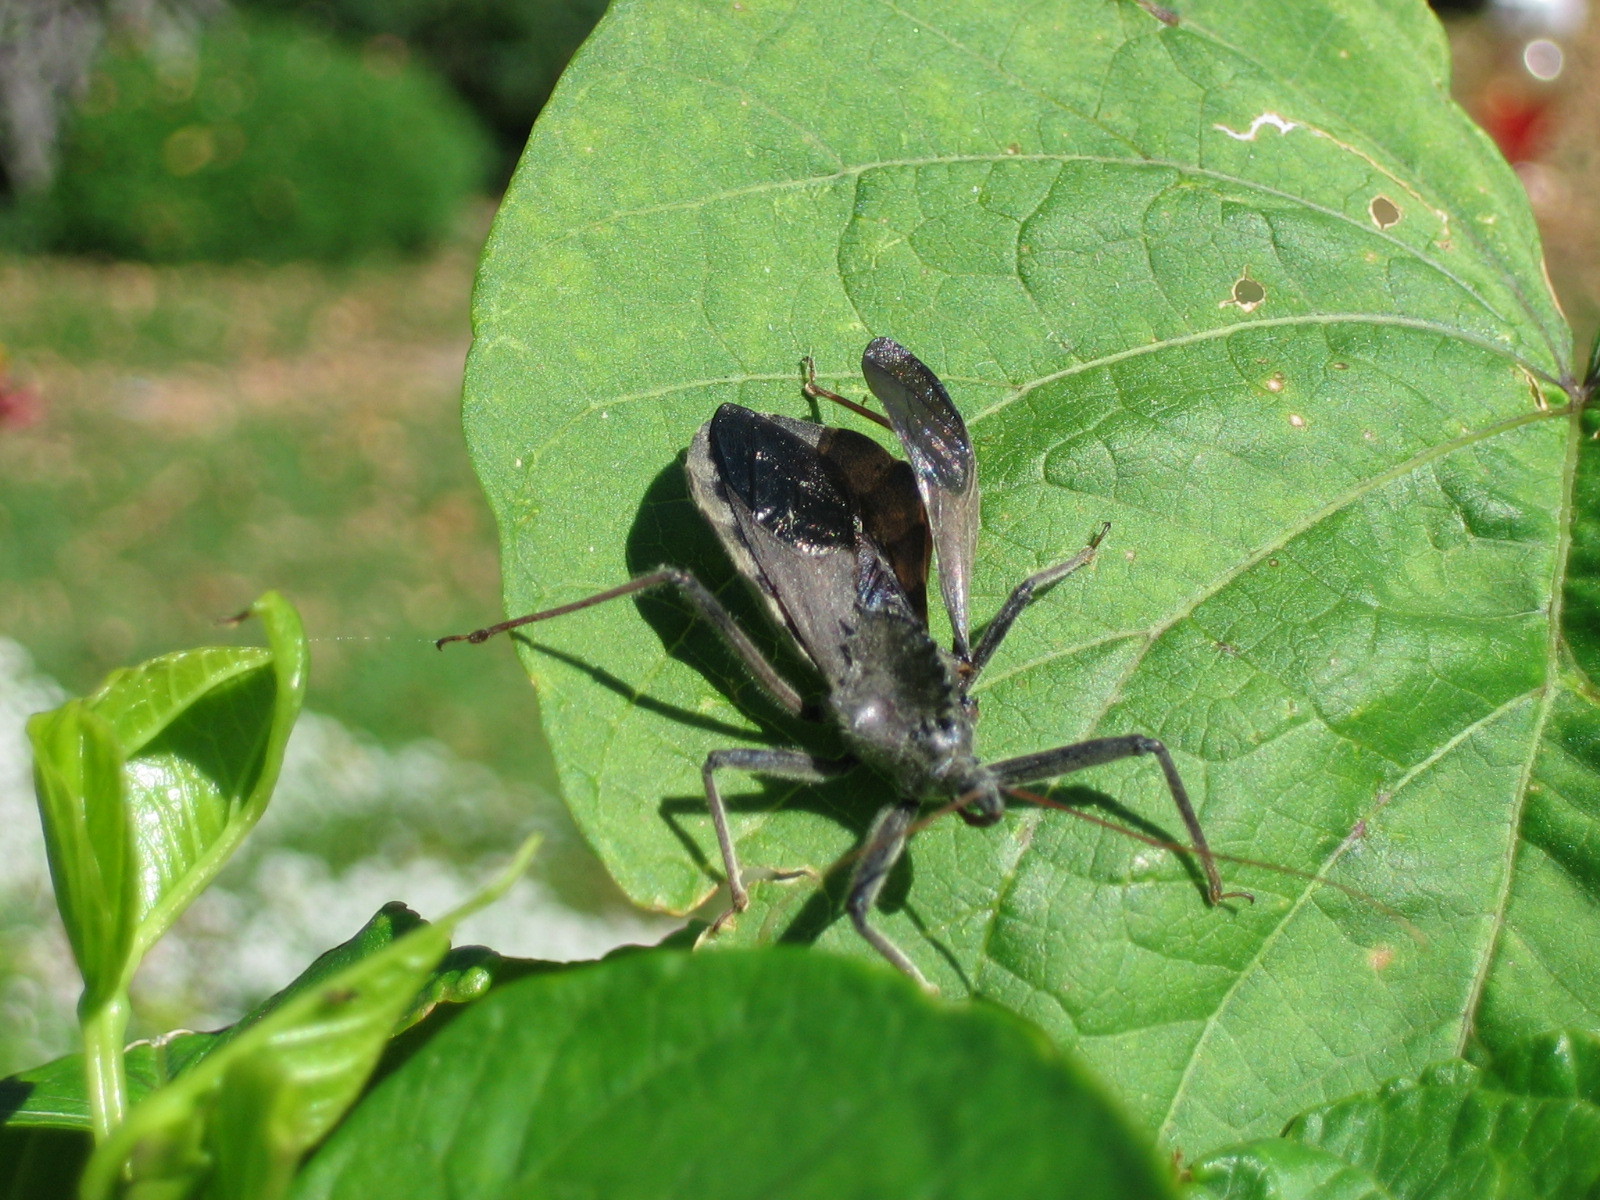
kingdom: Animalia
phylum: Arthropoda
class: Insecta
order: Hemiptera
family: Reduviidae
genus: Arilus
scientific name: Arilus cristatus
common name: North american wheel bug
